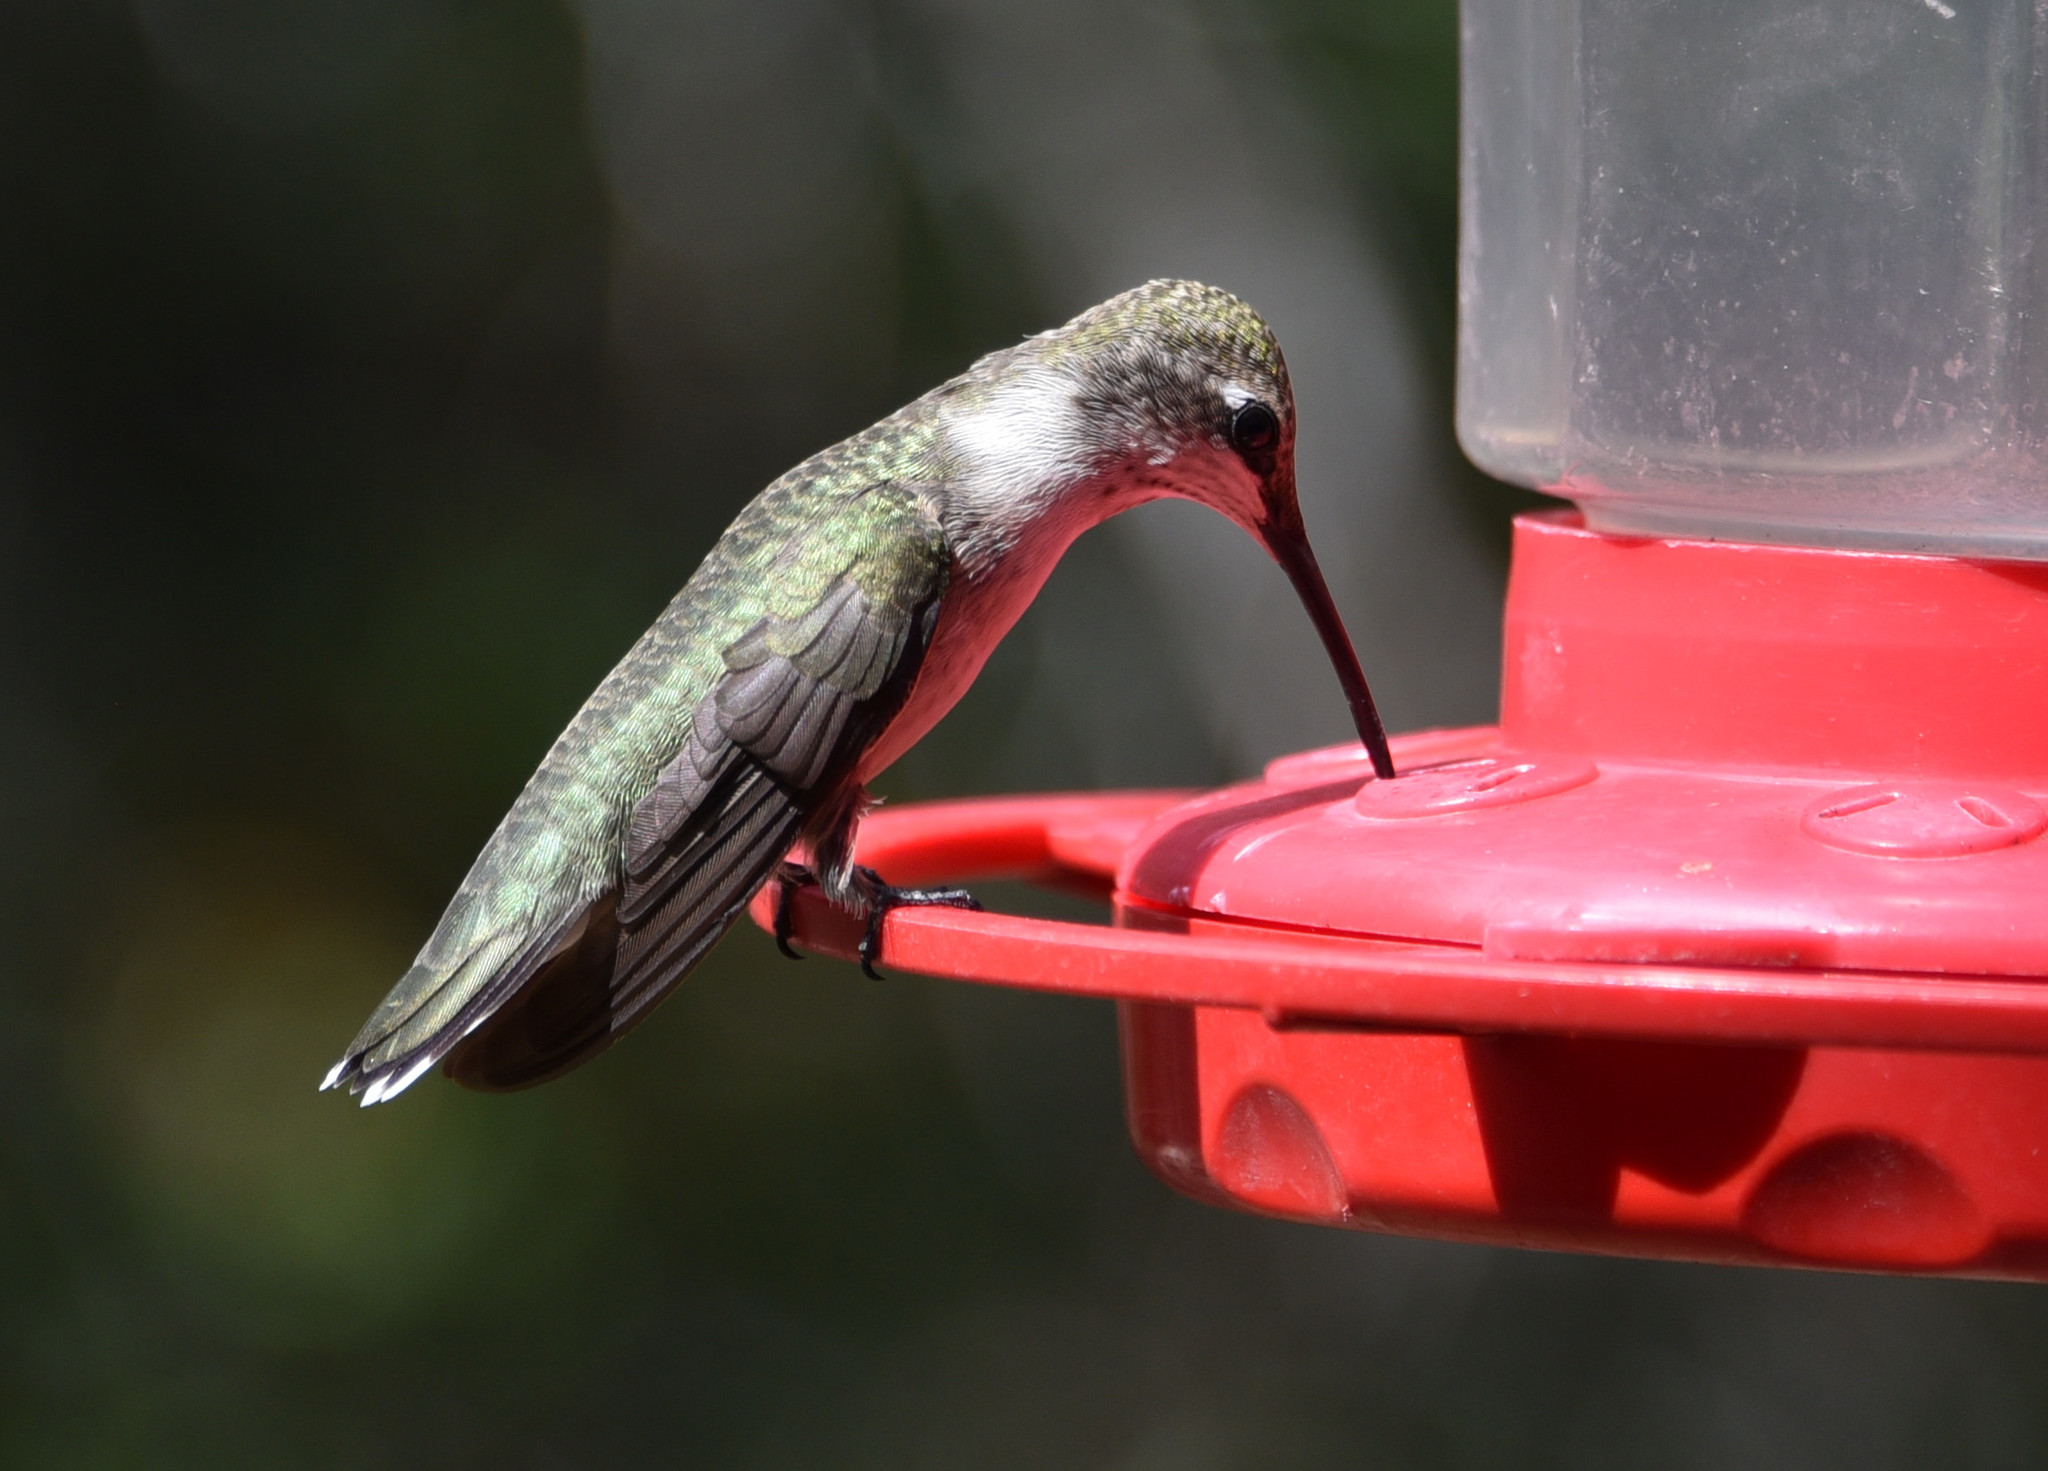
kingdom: Animalia
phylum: Chordata
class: Aves
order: Apodiformes
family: Trochilidae
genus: Archilochus
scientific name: Archilochus alexandri
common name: Black-chinned hummingbird
